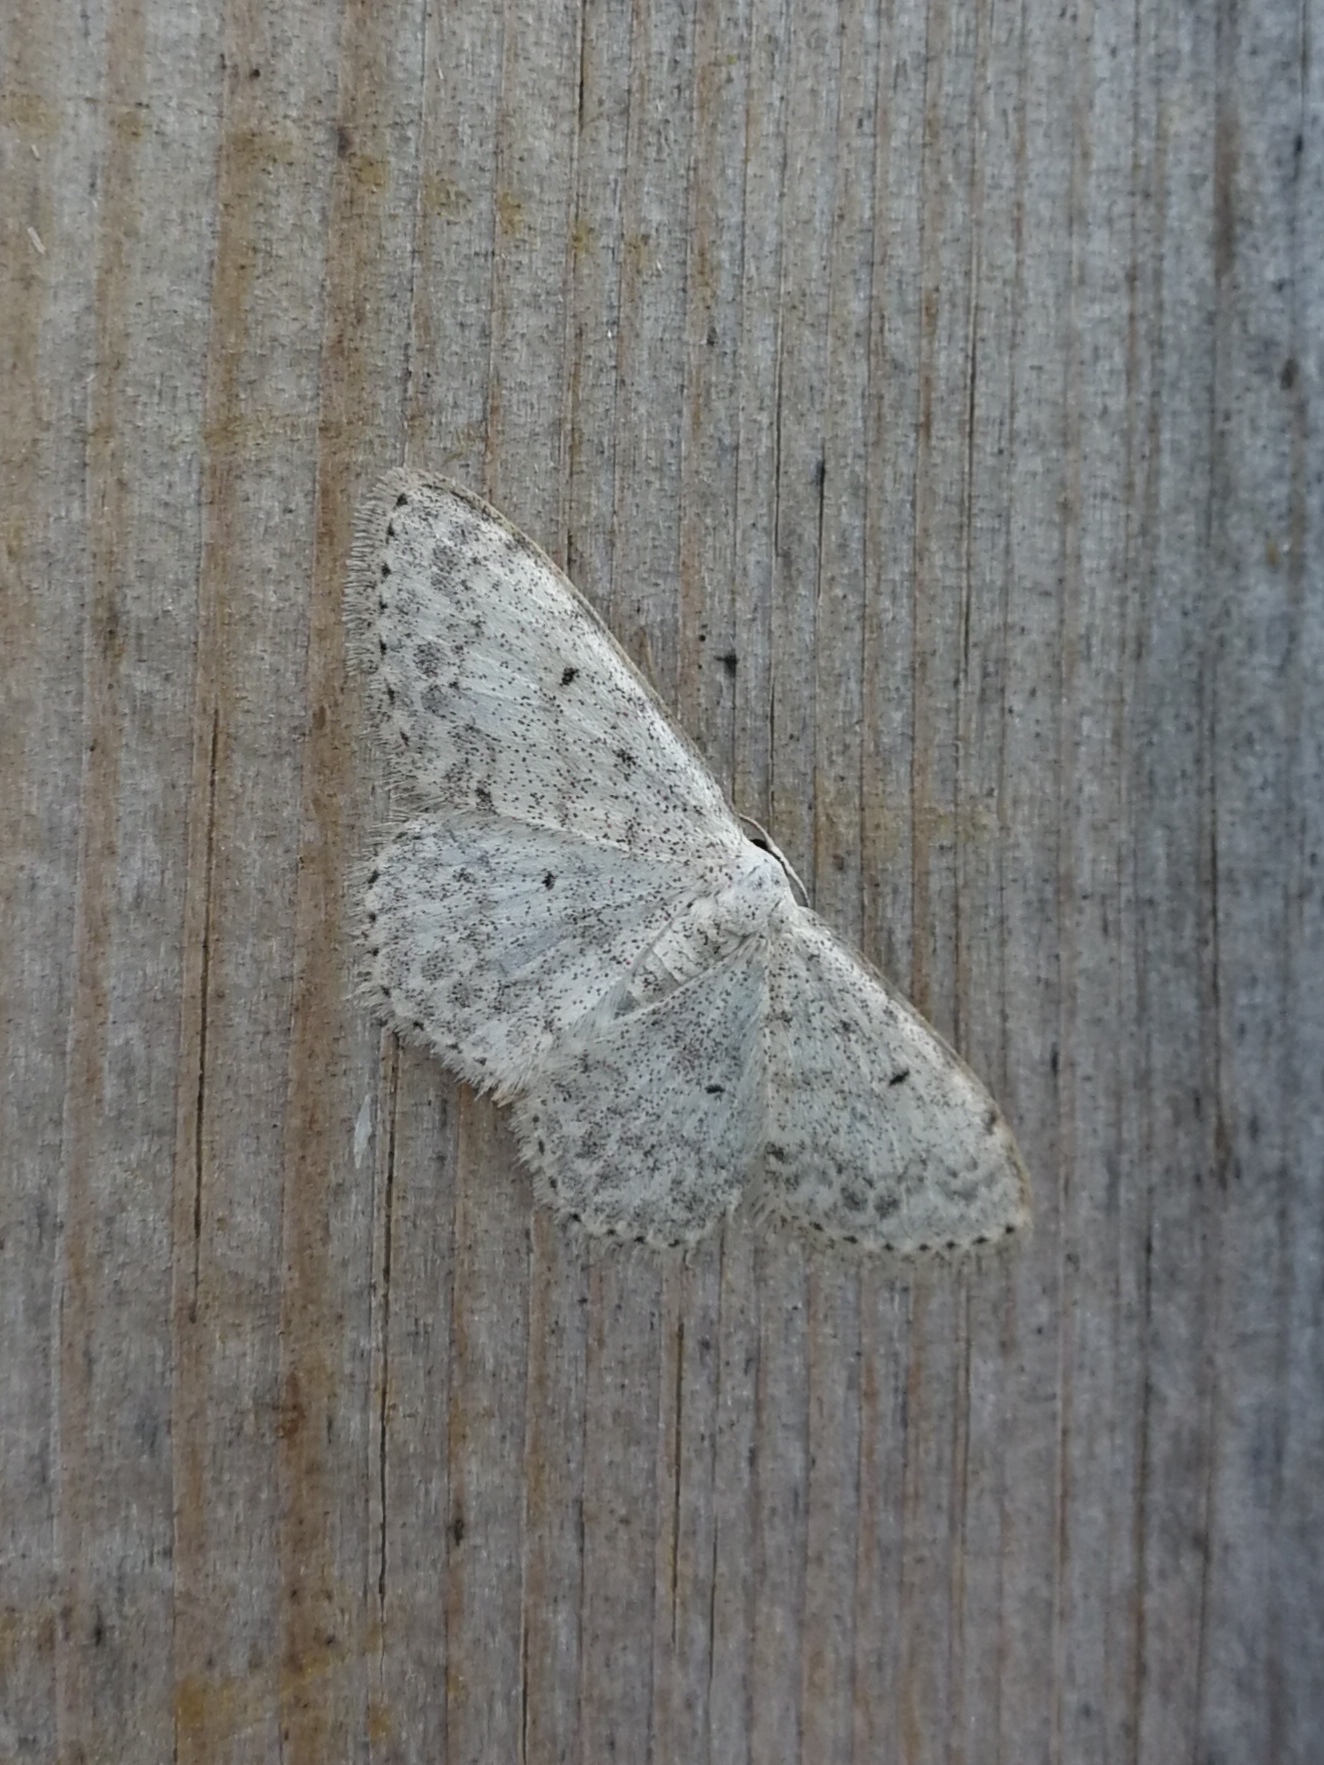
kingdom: Animalia
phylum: Arthropoda
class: Insecta
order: Lepidoptera
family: Geometridae
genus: Scopula
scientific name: Scopula marginepunctata
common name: Mullein wave
